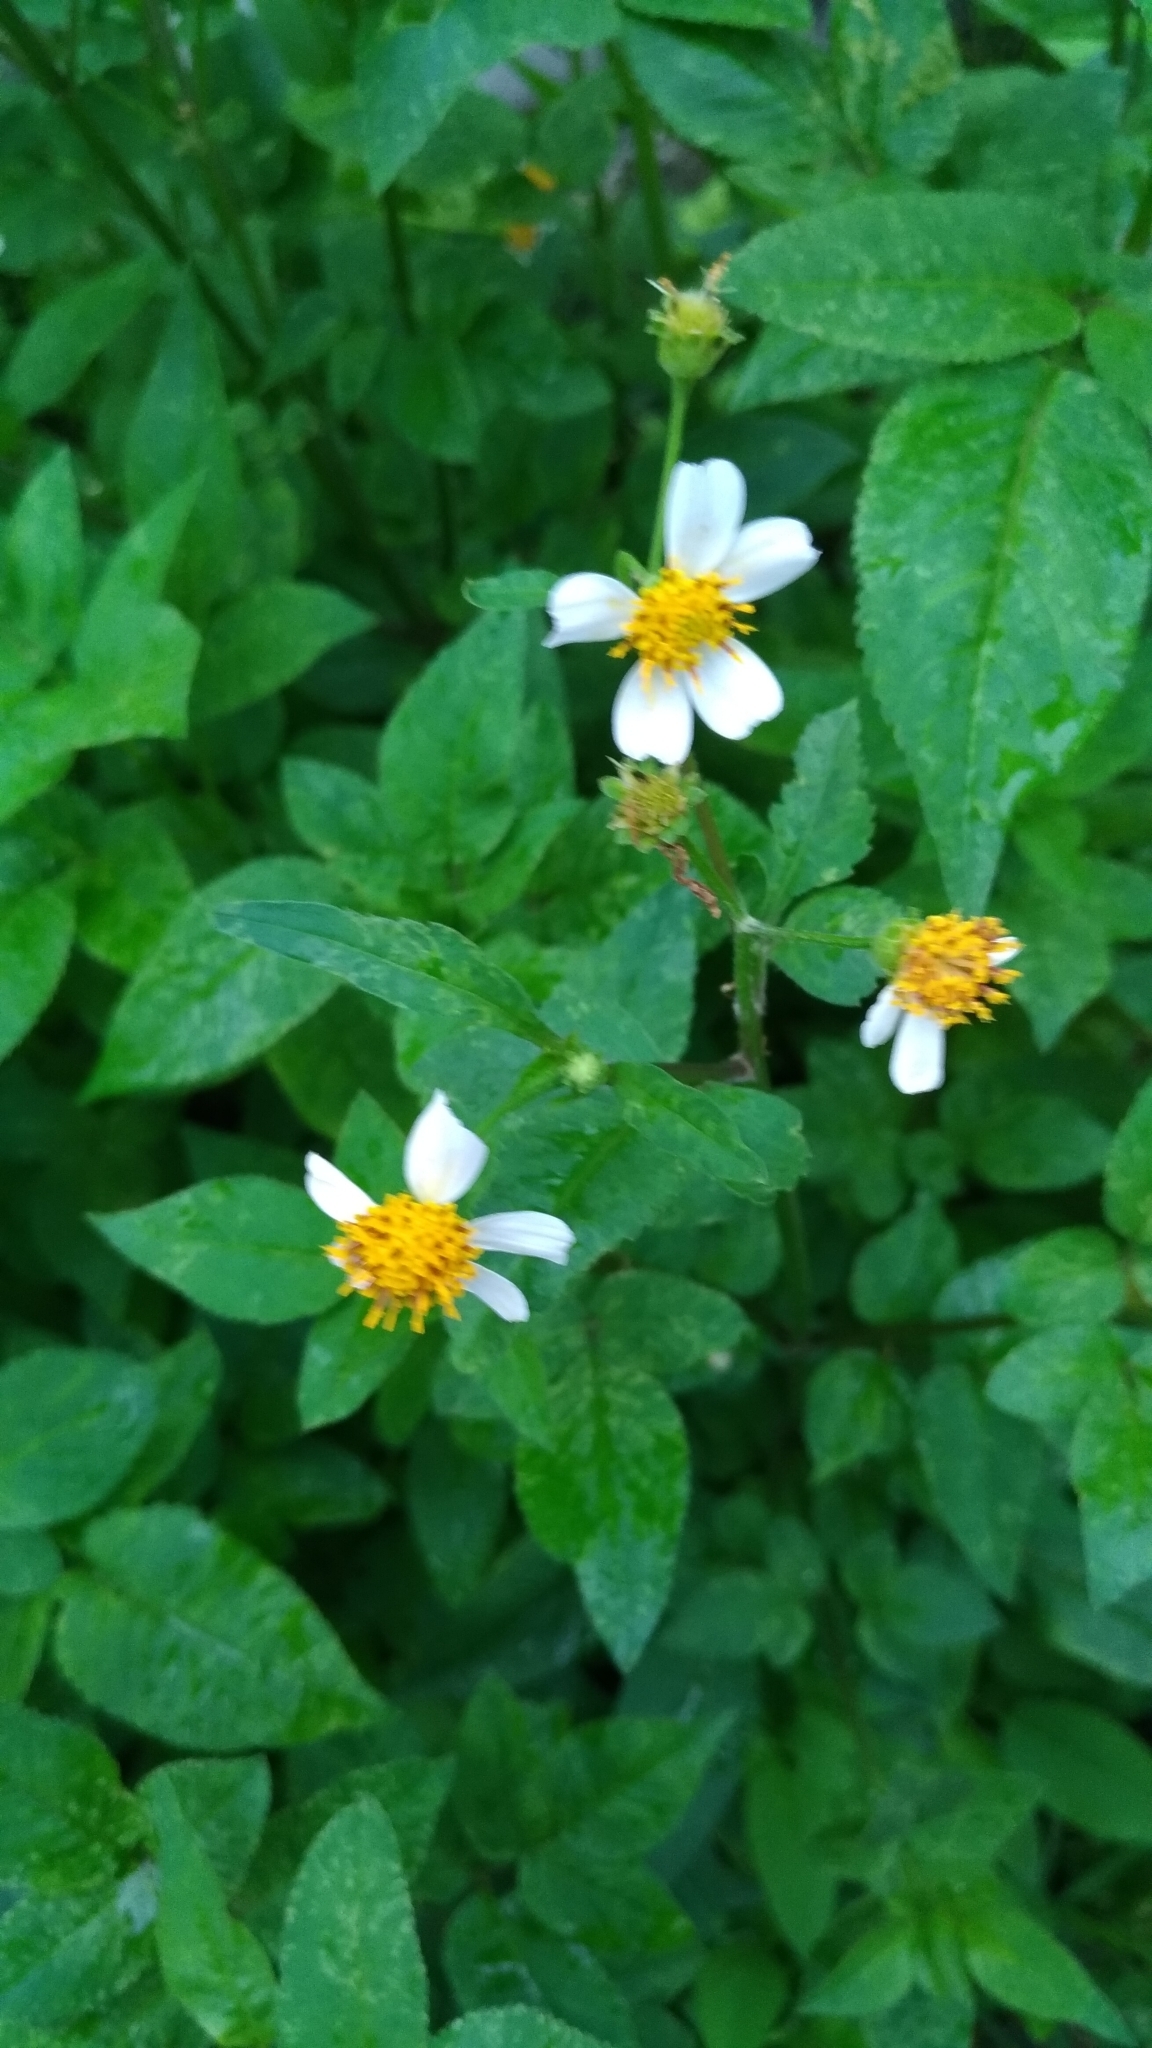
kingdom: Plantae
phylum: Tracheophyta
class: Magnoliopsida
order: Asterales
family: Asteraceae
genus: Bidens
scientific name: Bidens alba
